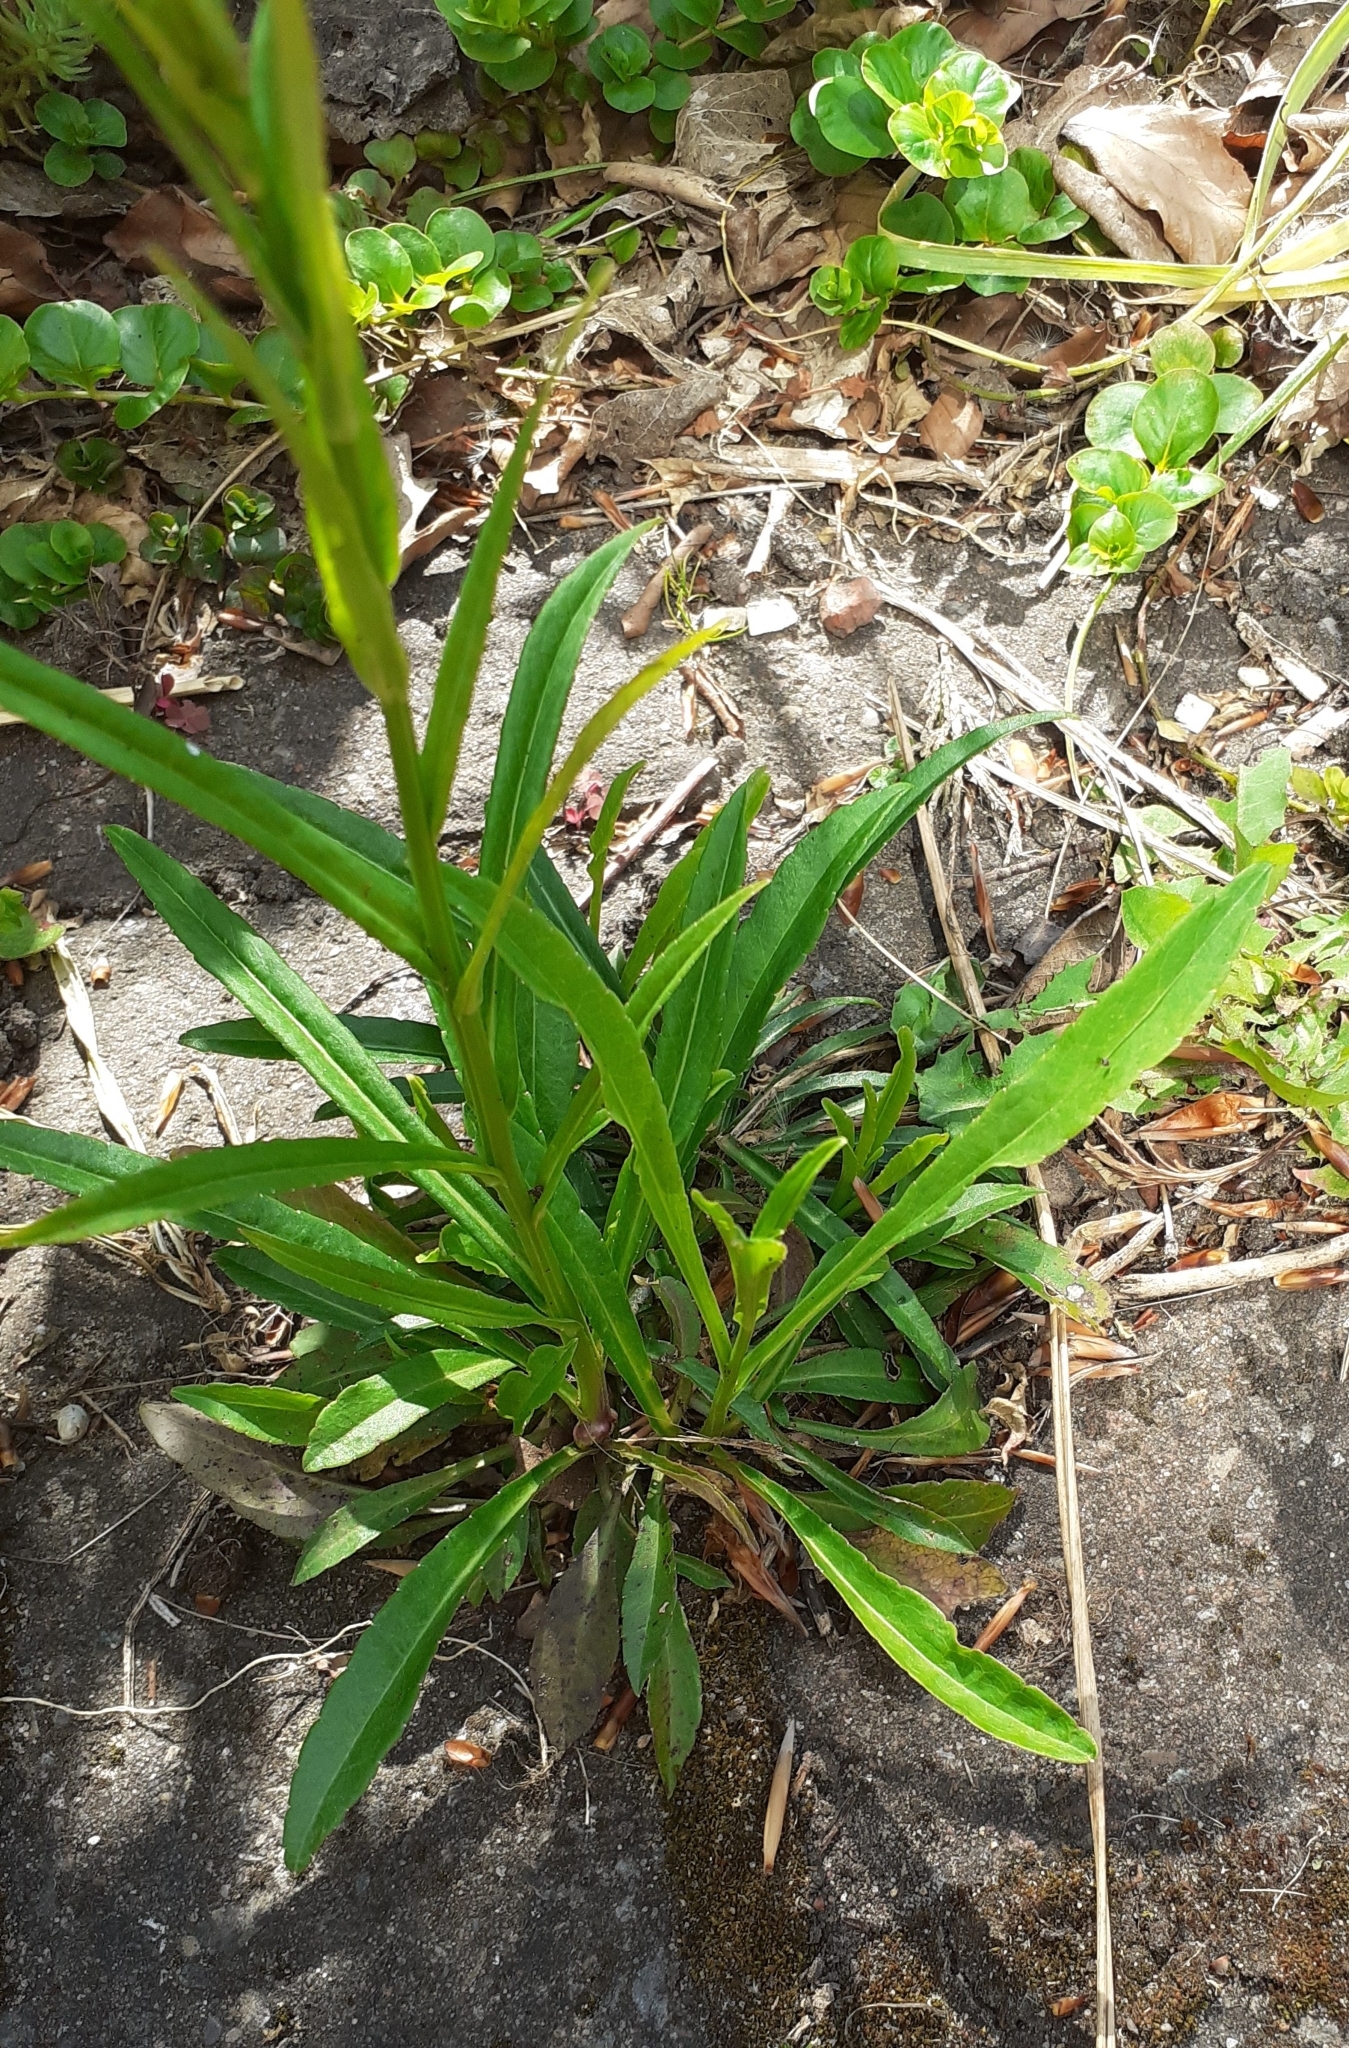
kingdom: Plantae
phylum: Tracheophyta
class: Magnoliopsida
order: Asterales
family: Campanulaceae
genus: Campanula
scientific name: Campanula persicifolia
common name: Peach-leaved bellflower
